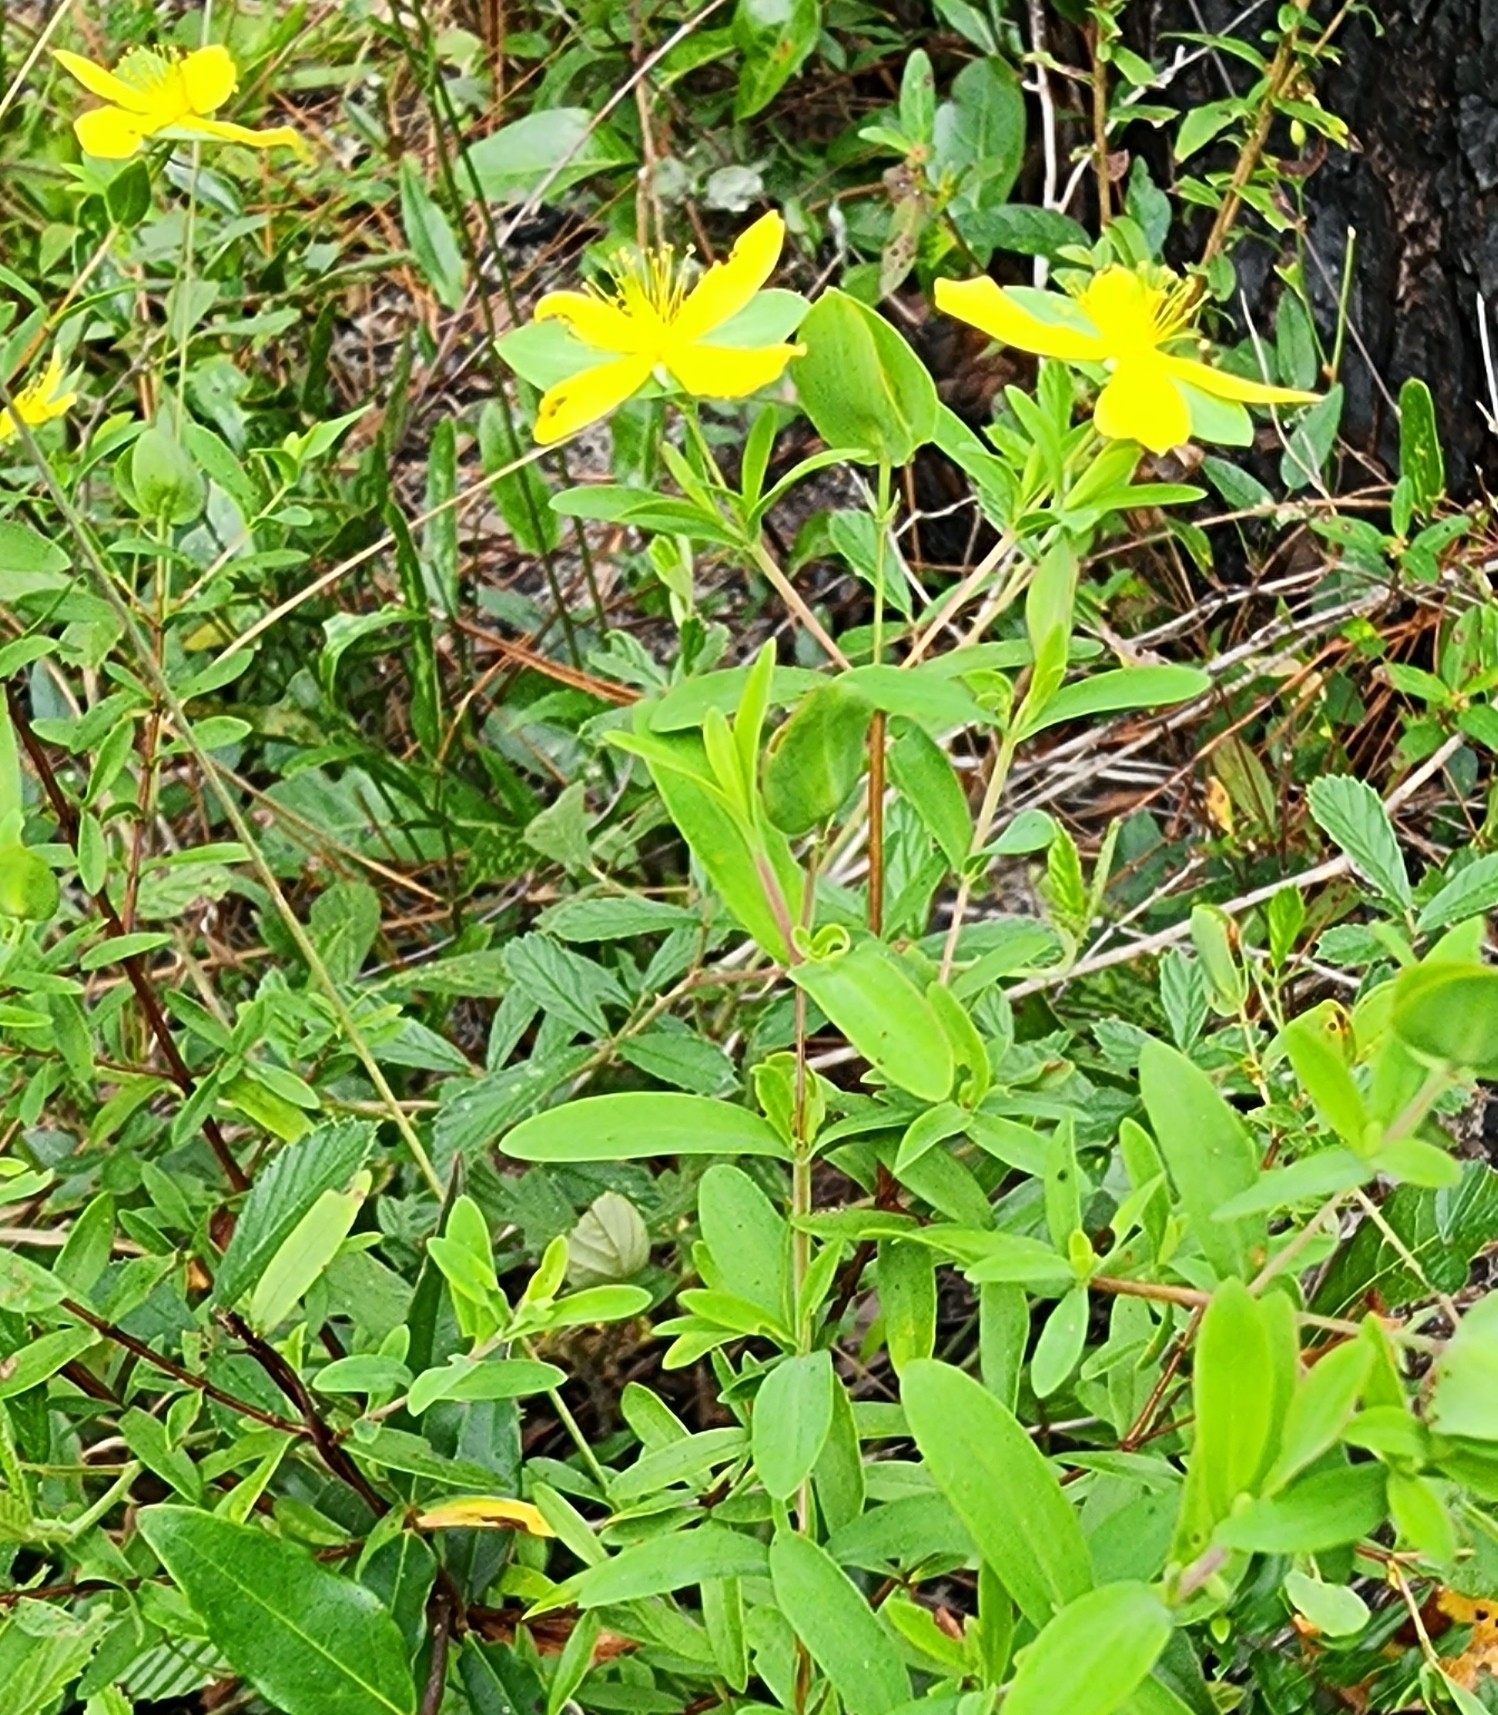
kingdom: Plantae
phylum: Tracheophyta
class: Magnoliopsida
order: Malpighiales
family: Hypericaceae
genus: Hypericum
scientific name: Hypericum hypericoides
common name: St. andrew's cross
